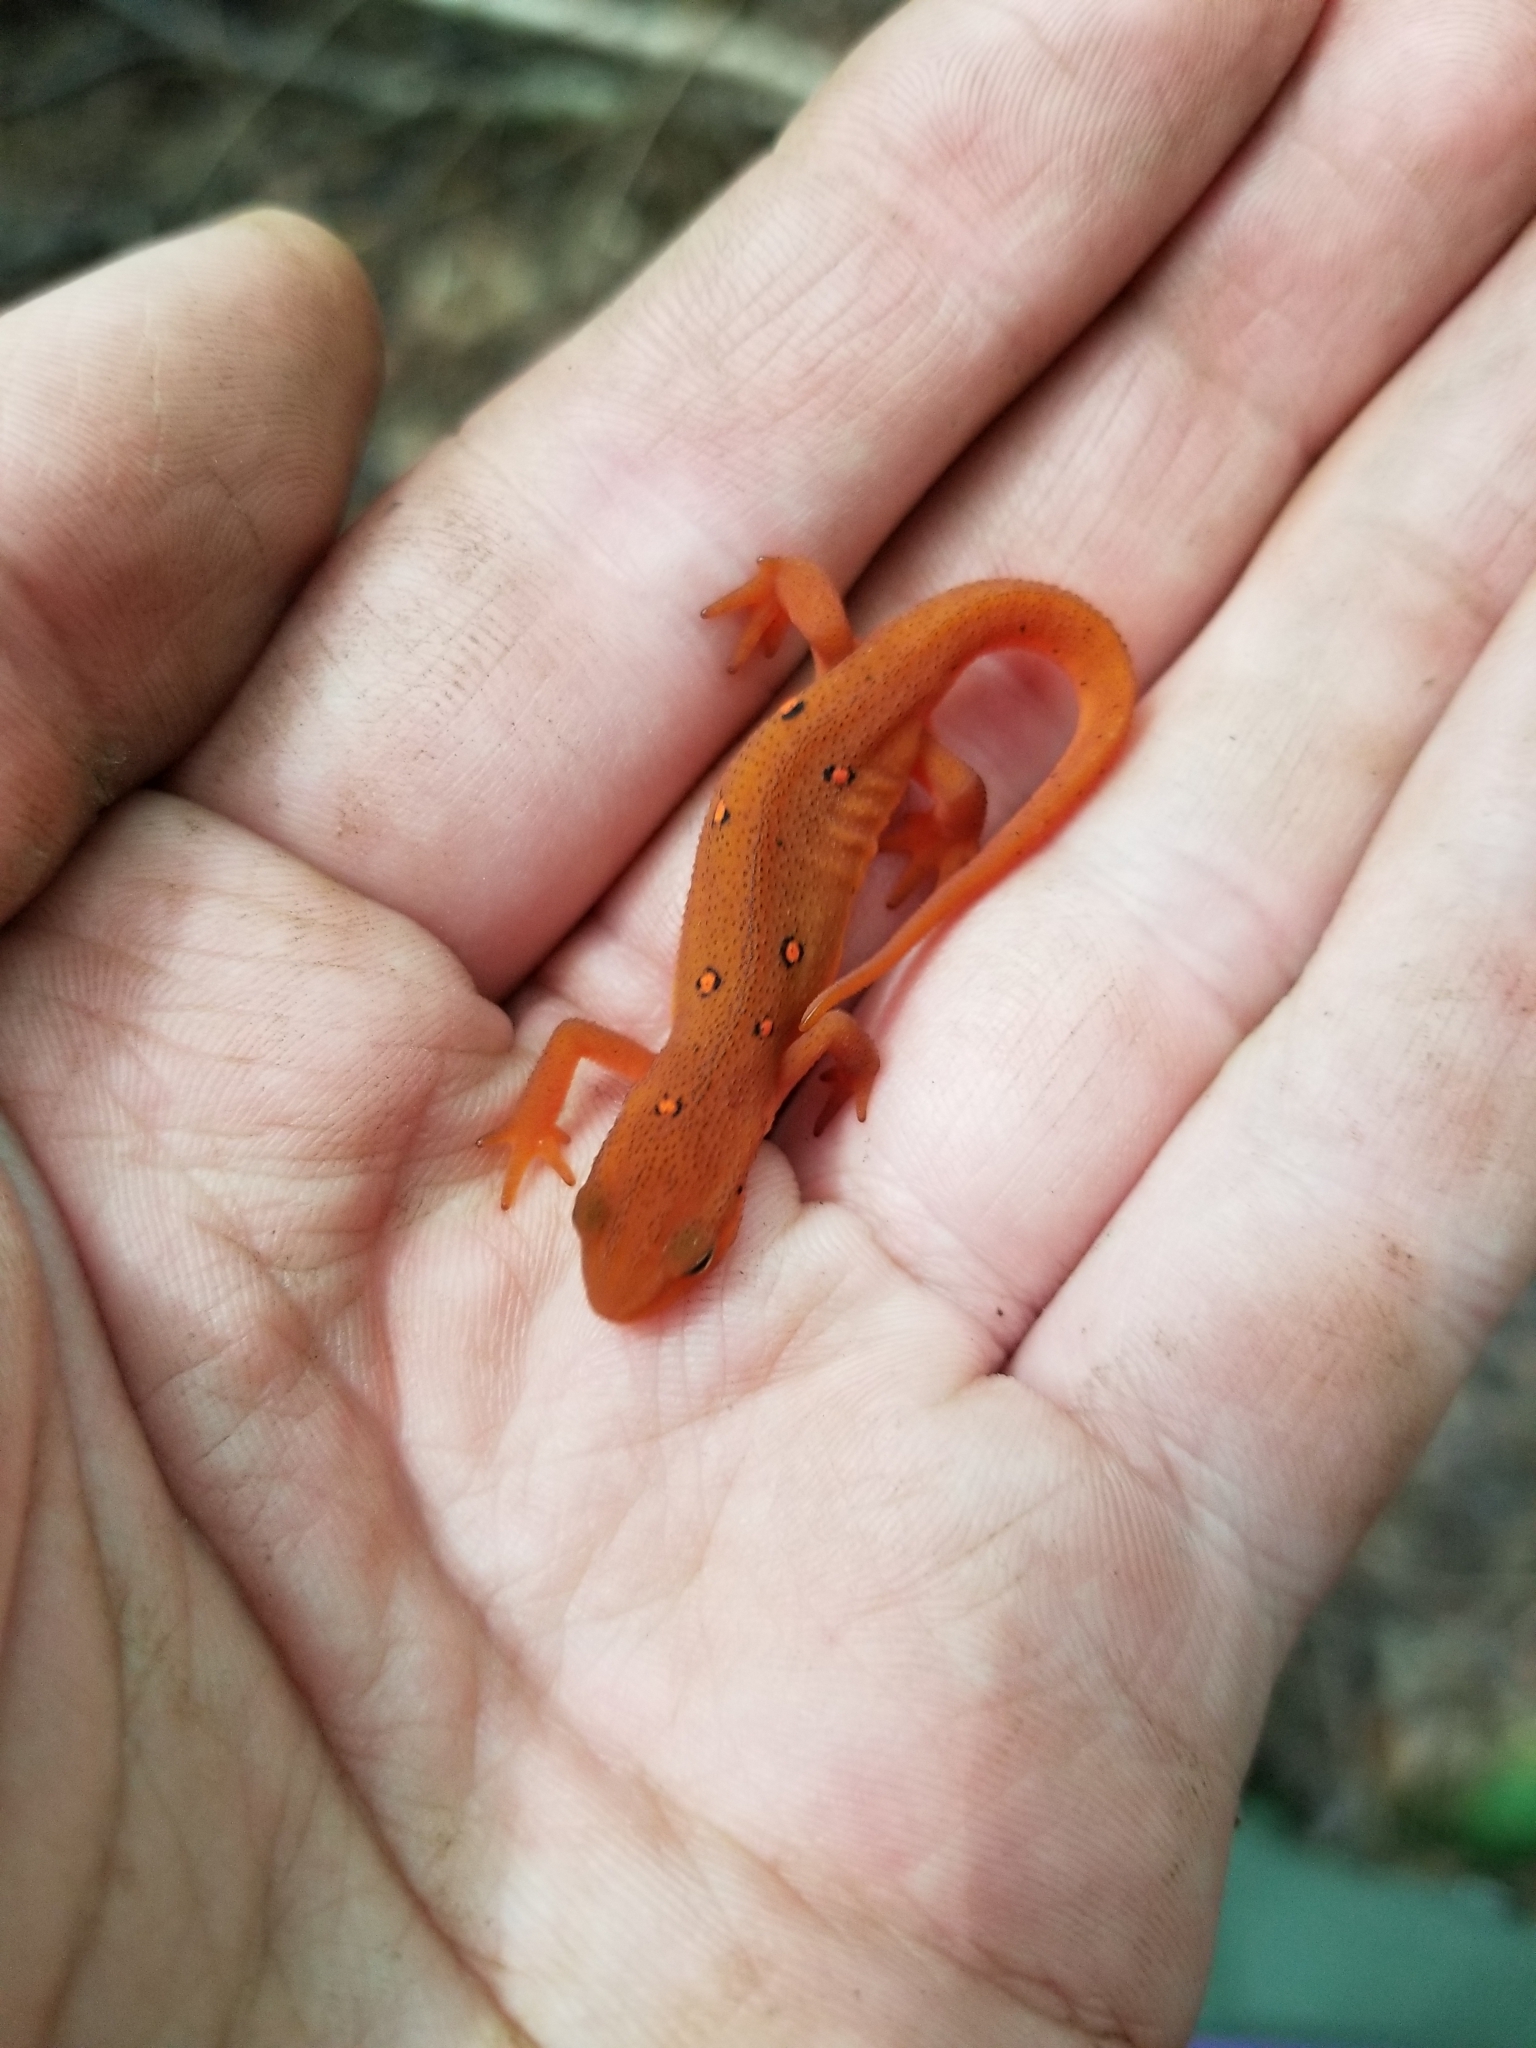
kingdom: Animalia
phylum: Chordata
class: Amphibia
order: Caudata
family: Salamandridae
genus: Notophthalmus
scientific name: Notophthalmus viridescens
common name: Eastern newt
